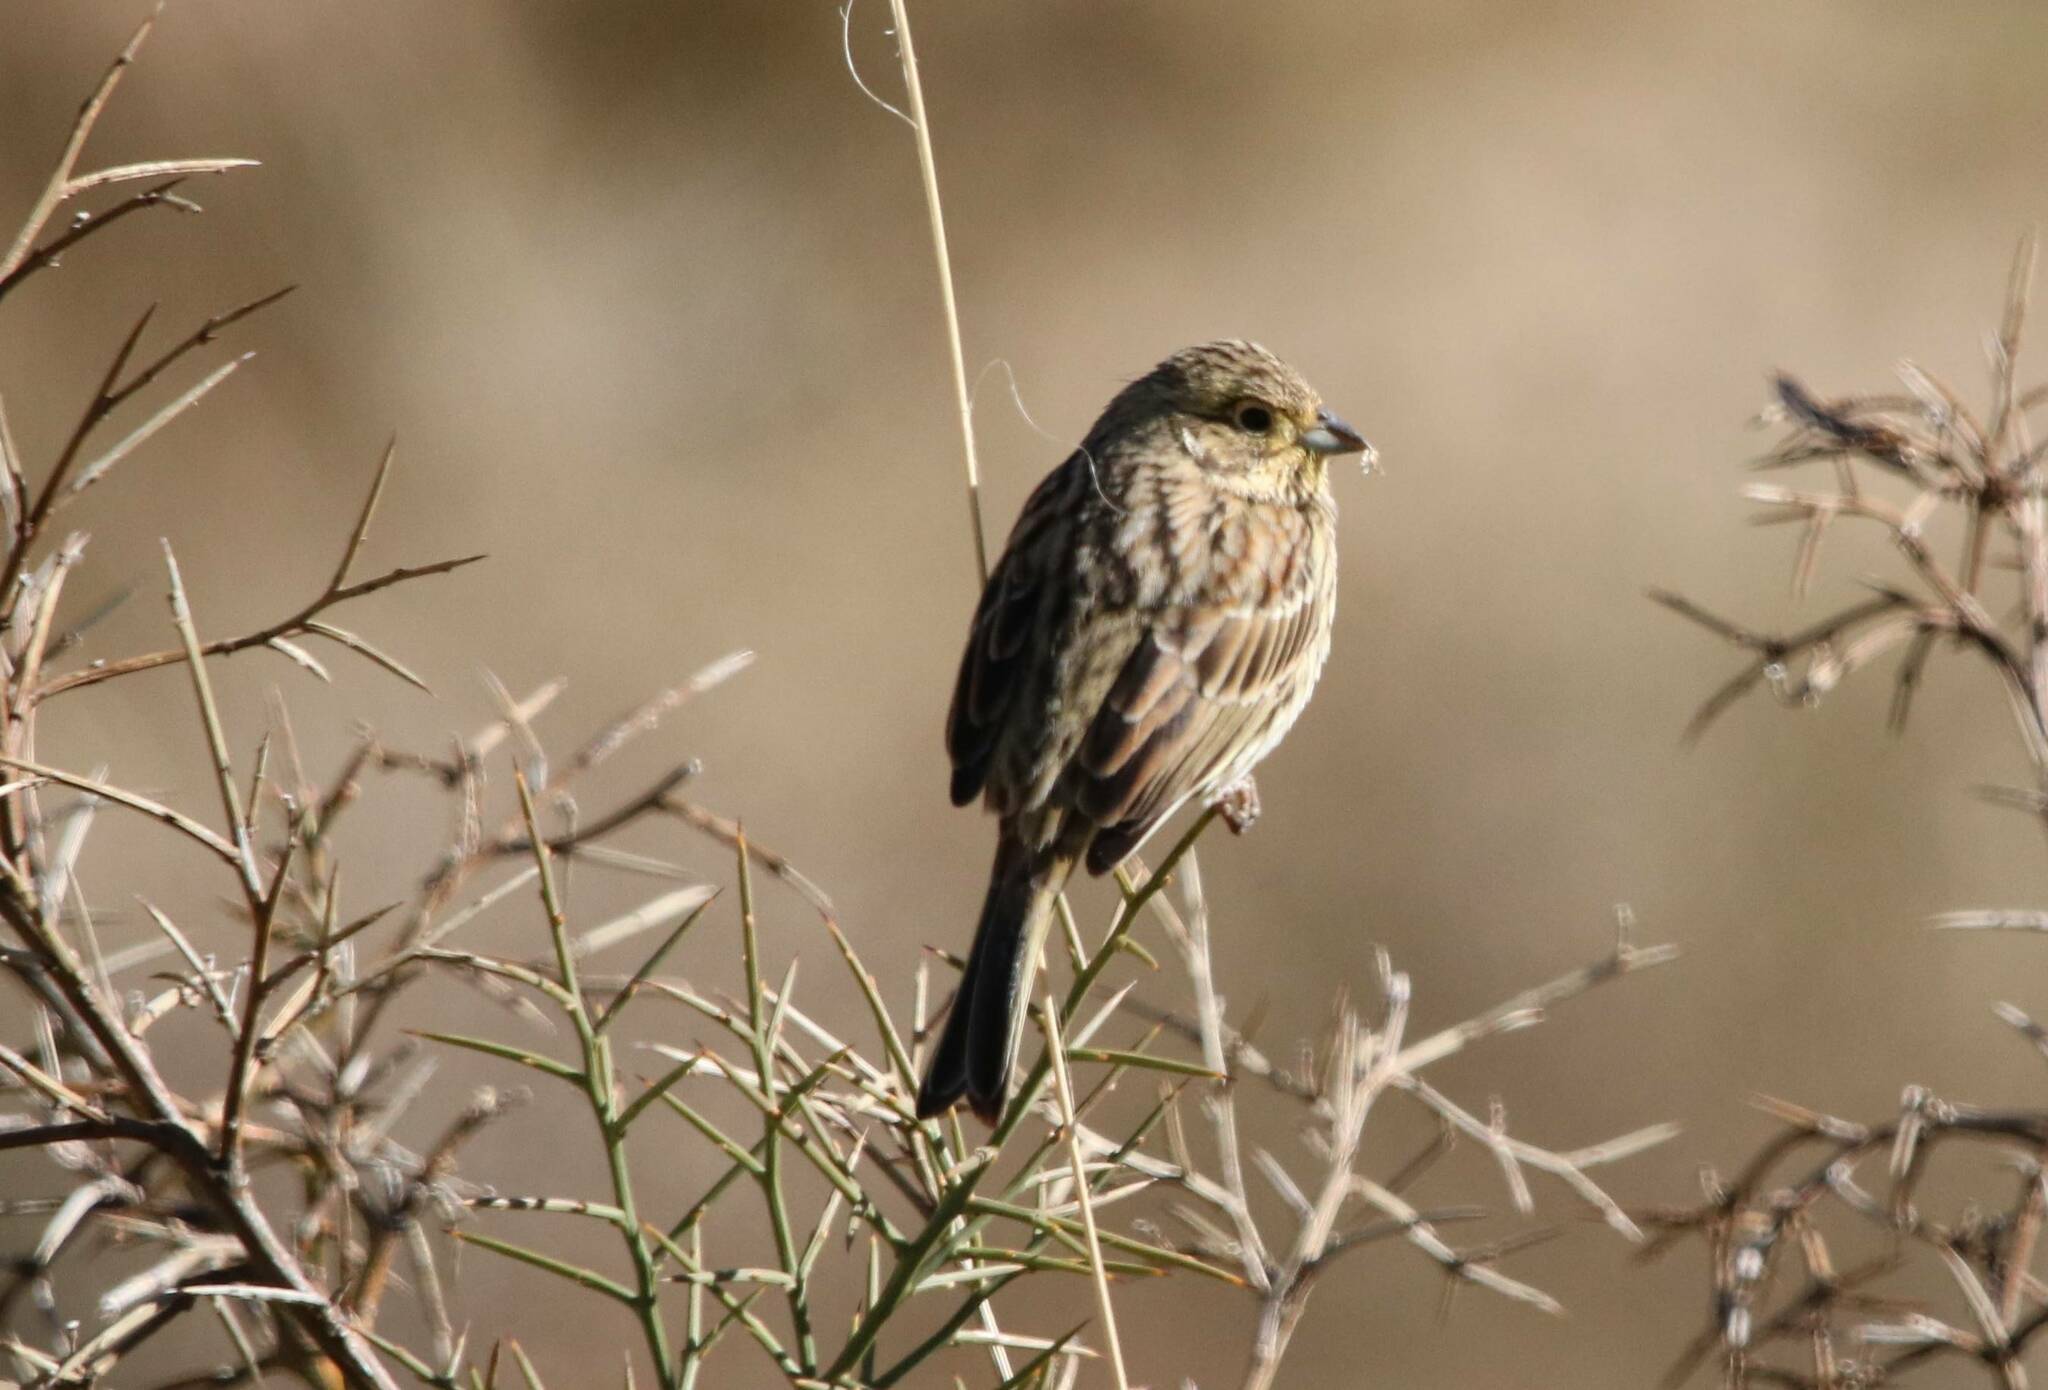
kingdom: Animalia
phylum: Chordata
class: Aves
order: Passeriformes
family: Emberizidae
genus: Emberiza
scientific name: Emberiza cirlus
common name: Cirl bunting
